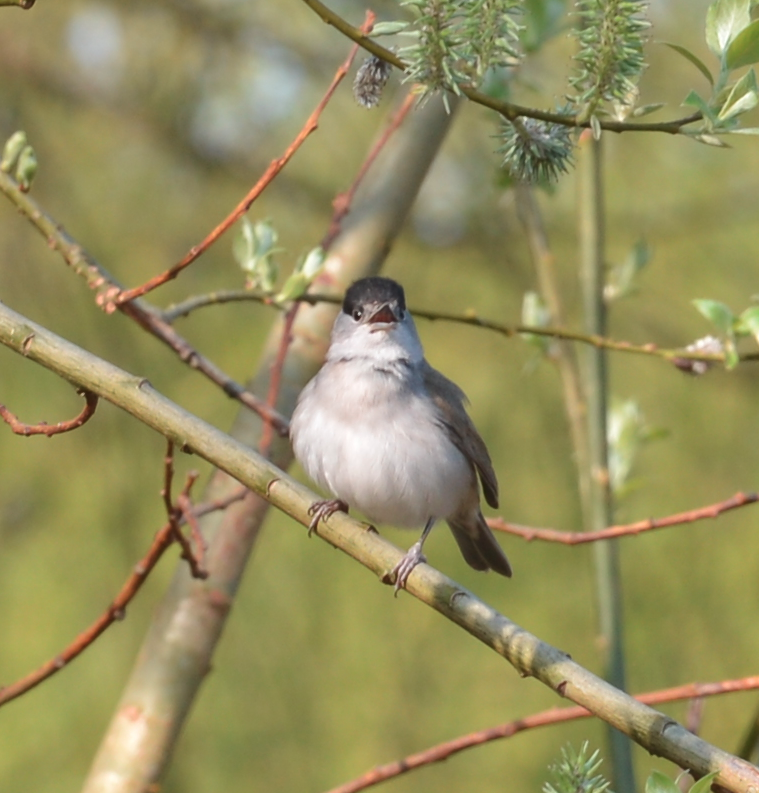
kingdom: Animalia
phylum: Chordata
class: Aves
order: Passeriformes
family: Sylviidae
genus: Sylvia
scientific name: Sylvia atricapilla
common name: Eurasian blackcap
